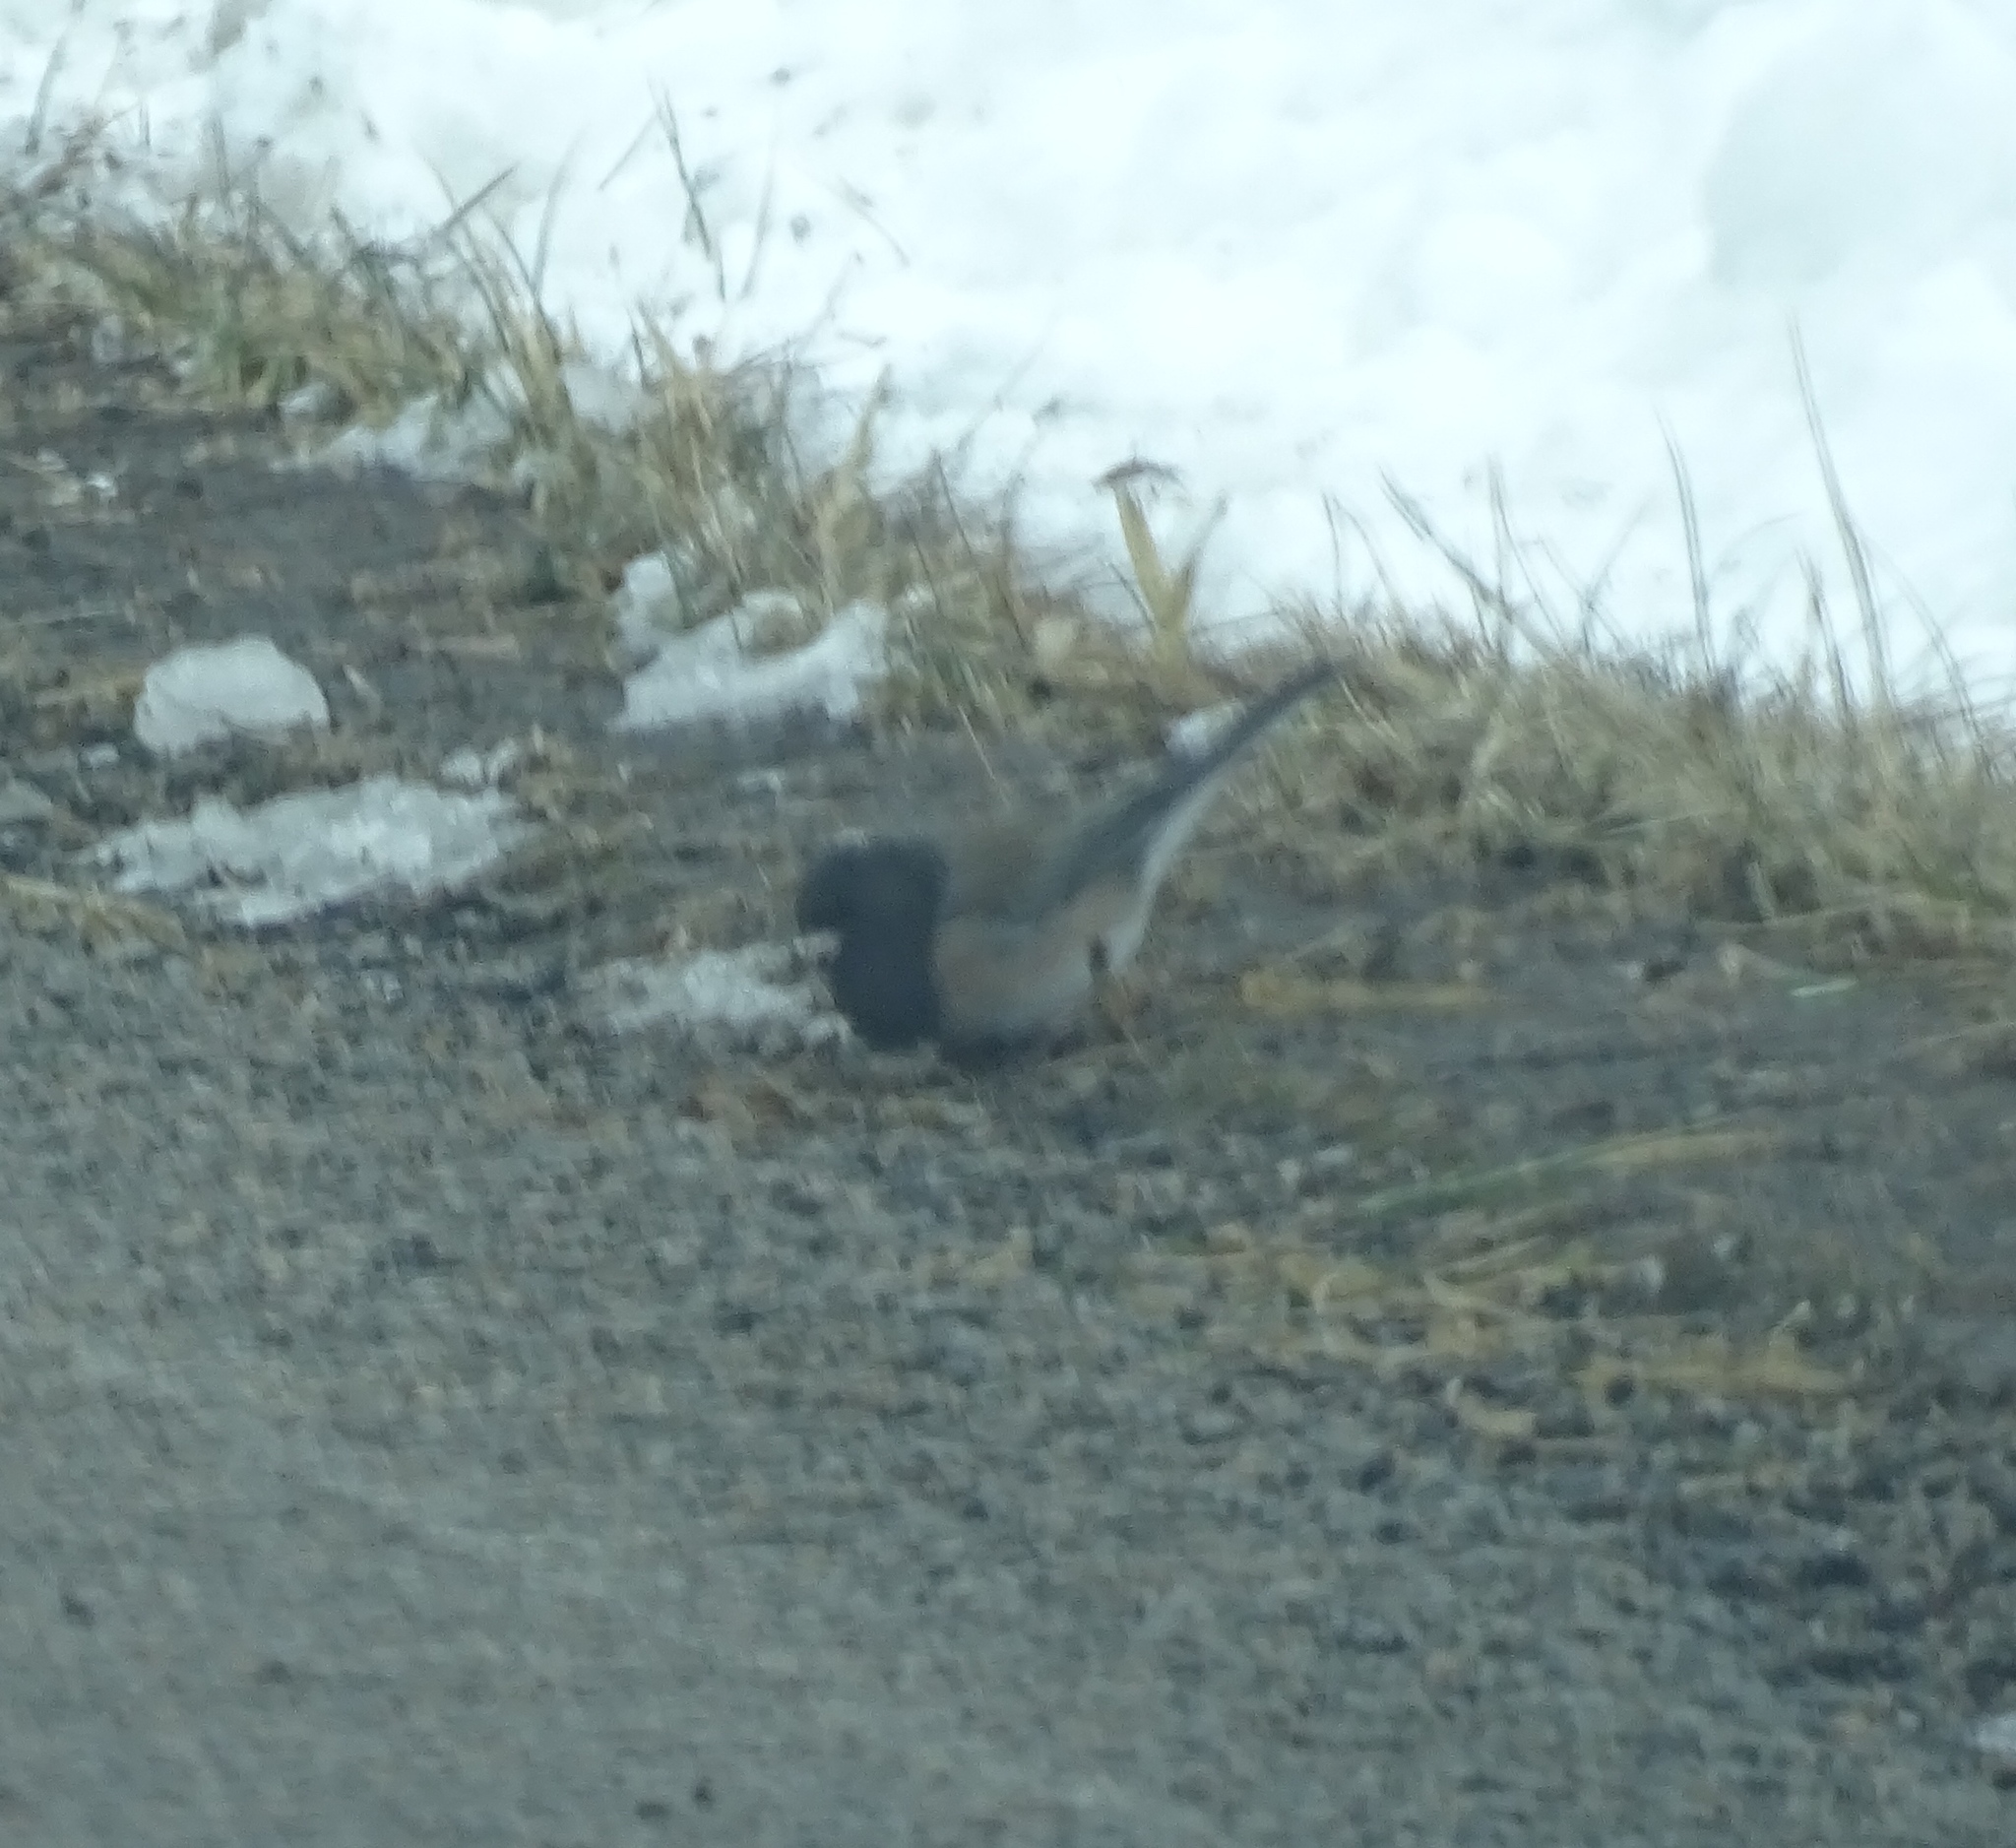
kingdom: Animalia
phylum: Chordata
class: Aves
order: Passeriformes
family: Passerellidae
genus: Junco
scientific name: Junco hyemalis
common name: Dark-eyed junco
